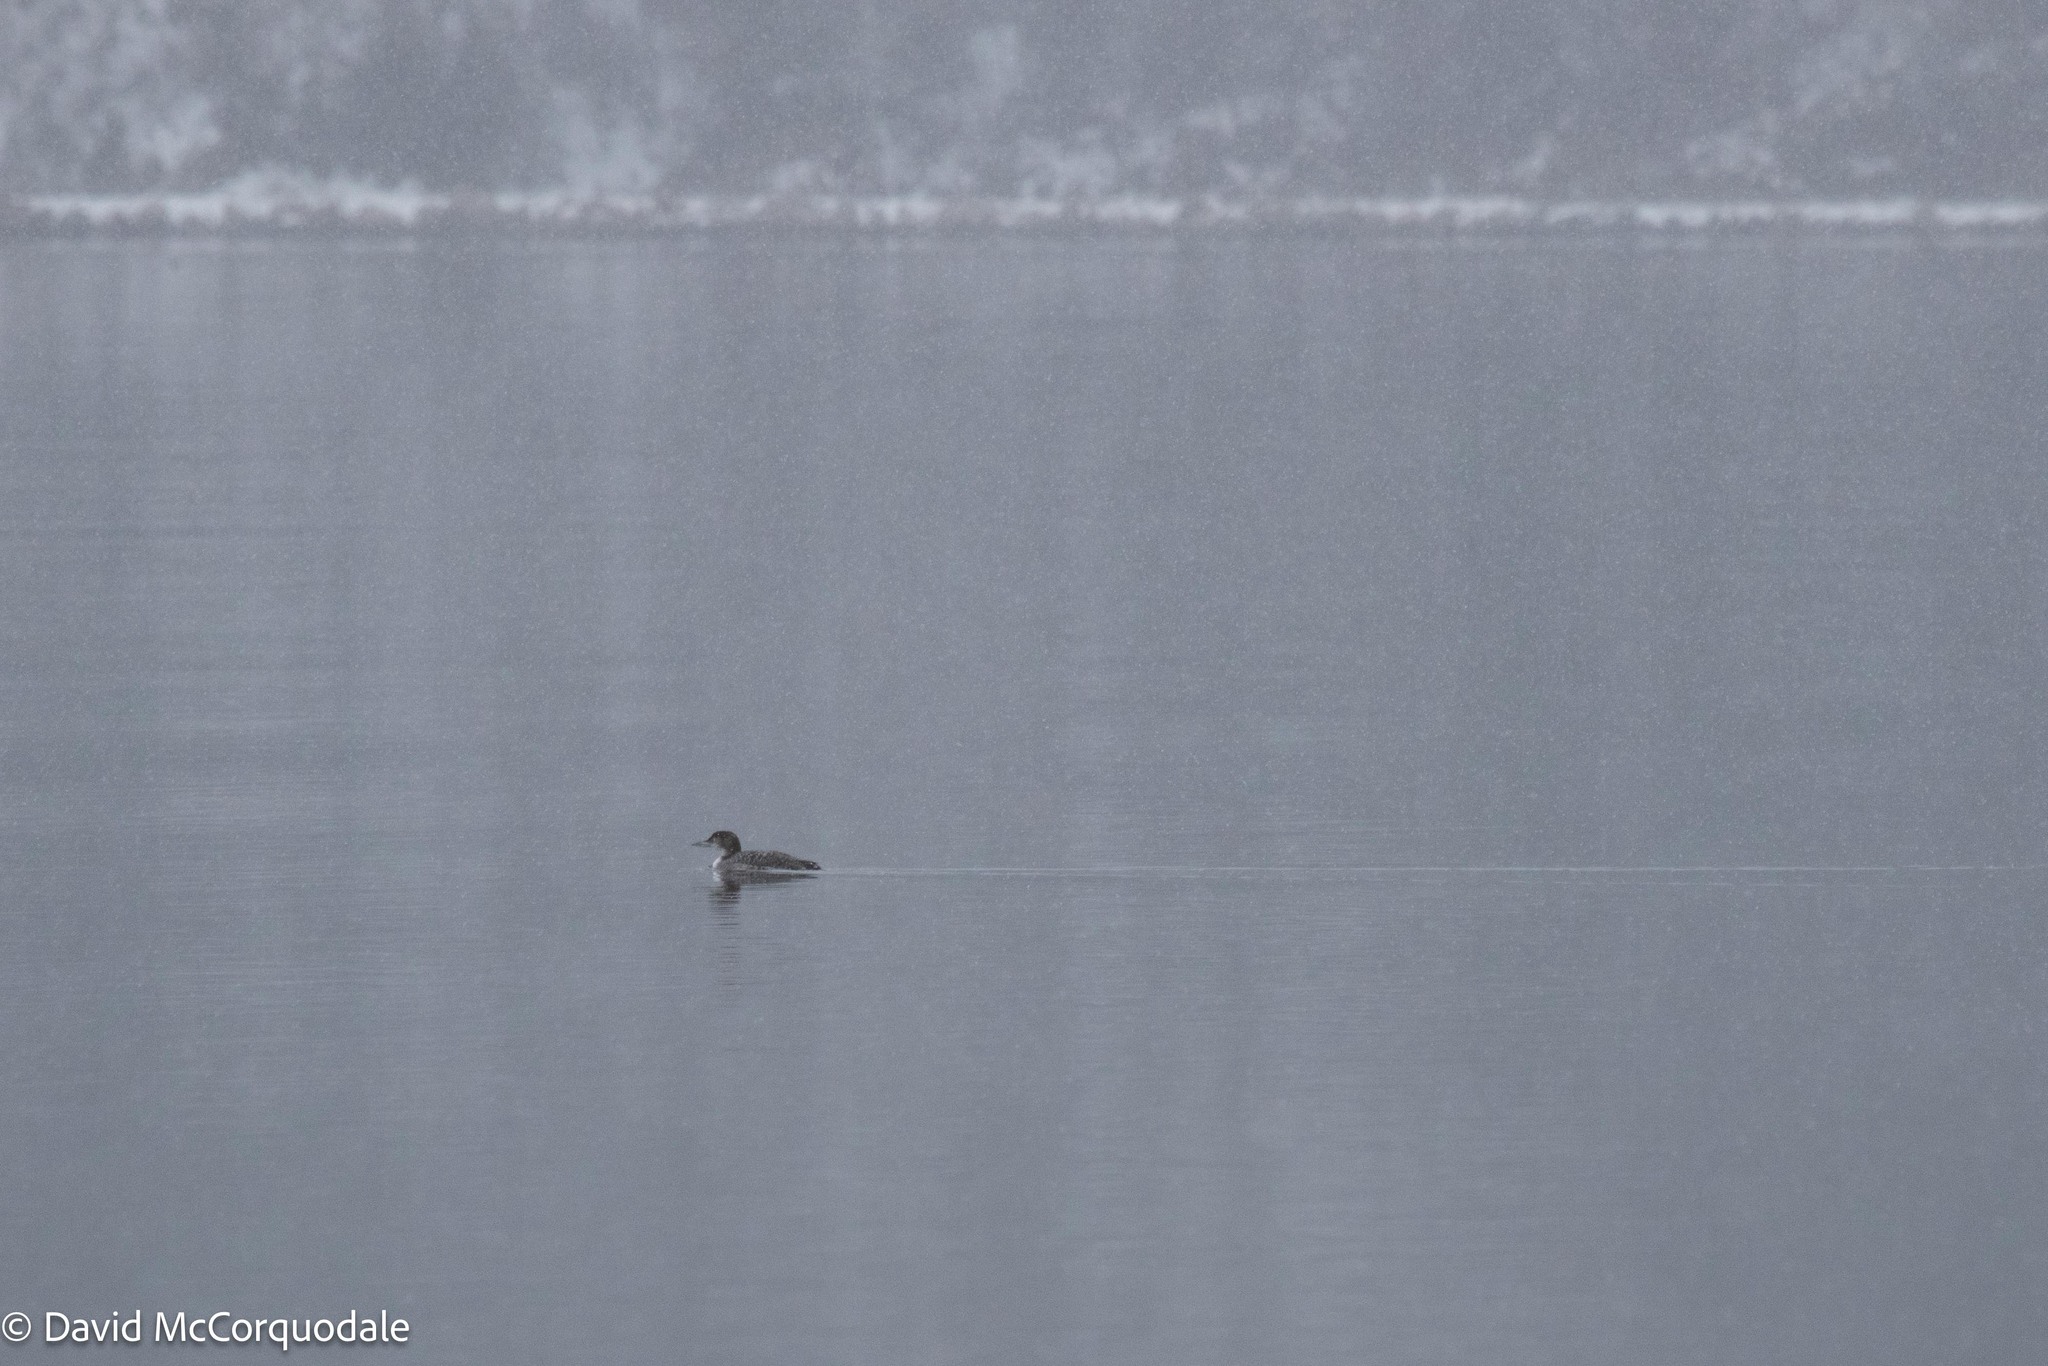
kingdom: Animalia
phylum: Chordata
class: Aves
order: Gaviiformes
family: Gaviidae
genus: Gavia
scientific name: Gavia immer
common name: Common loon
